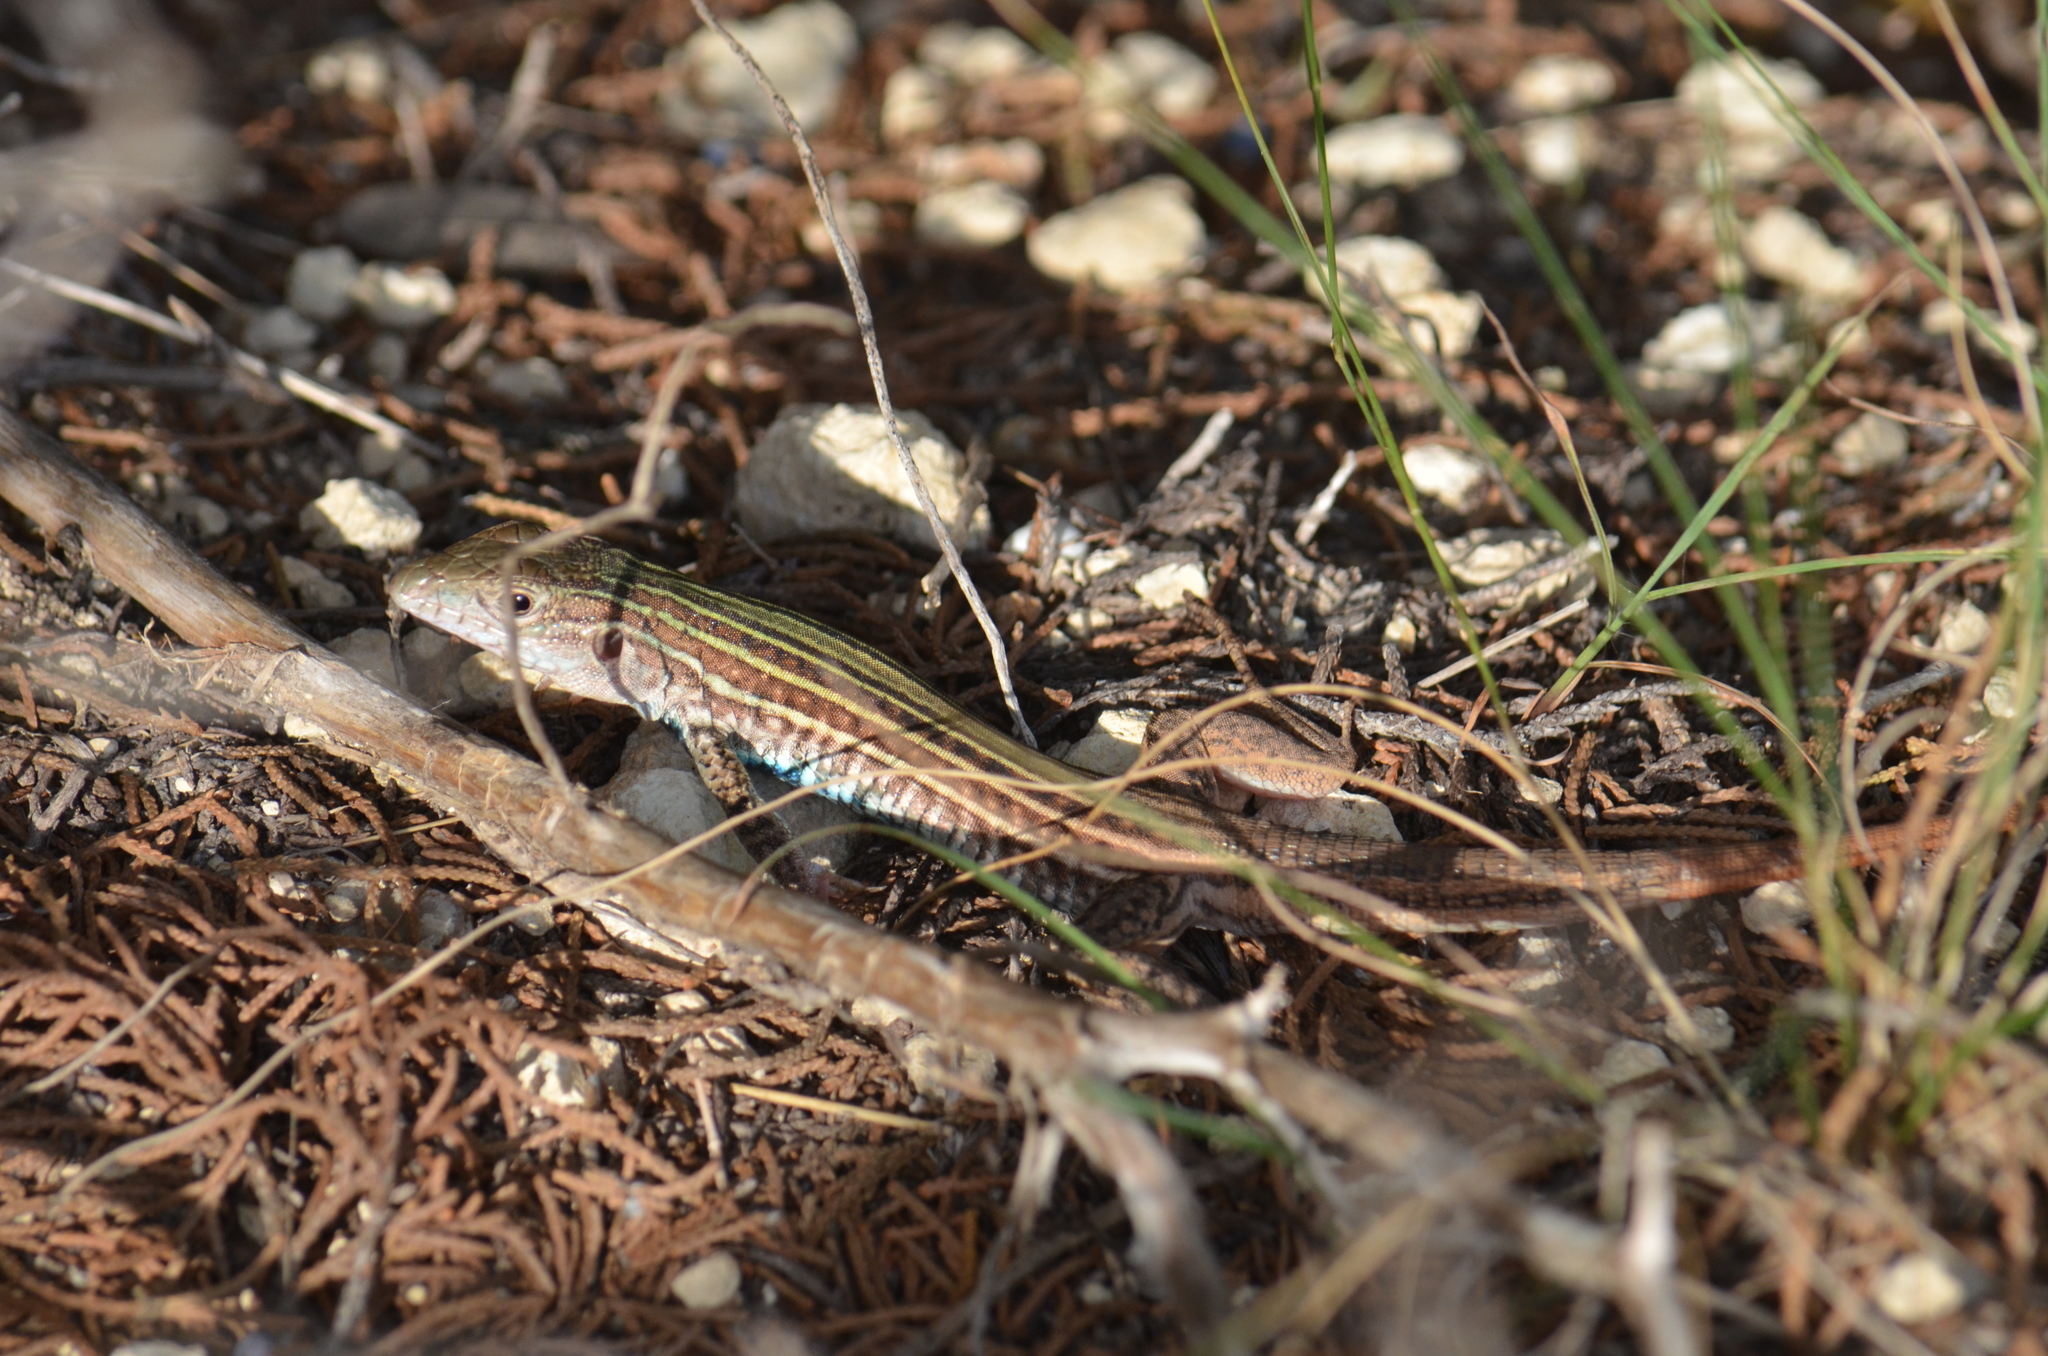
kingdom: Animalia
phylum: Chordata
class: Squamata
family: Teiidae
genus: Aspidoscelis
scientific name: Aspidoscelis gularis
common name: Eastern spotted whiptail
